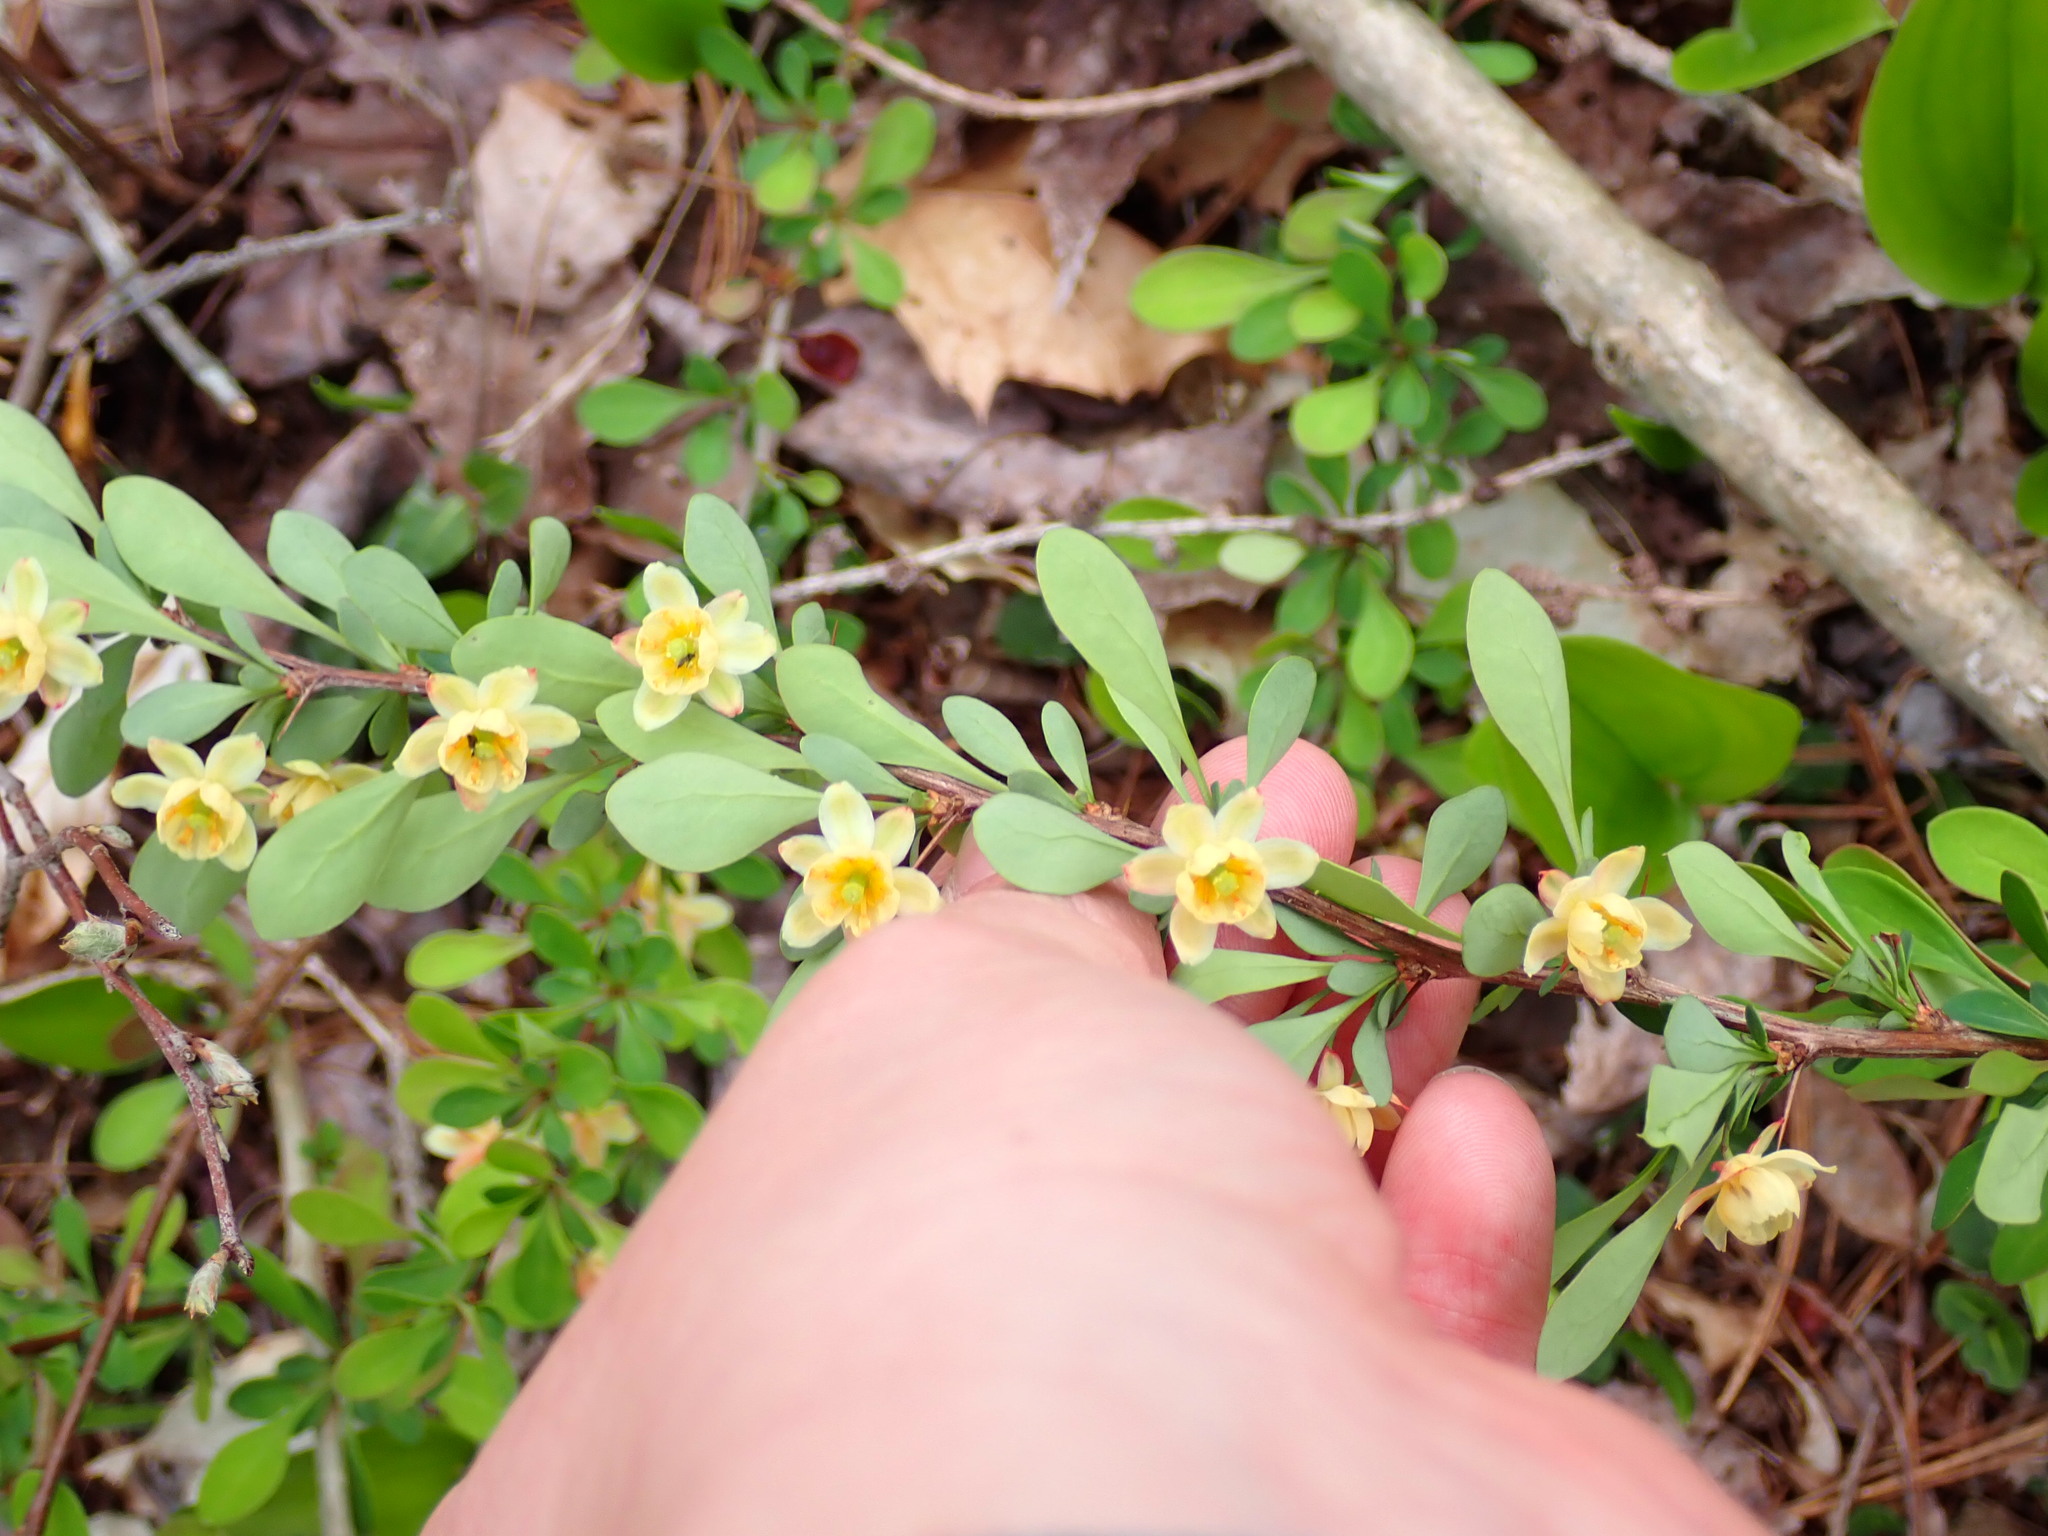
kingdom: Plantae
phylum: Tracheophyta
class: Magnoliopsida
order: Ranunculales
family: Berberidaceae
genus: Berberis
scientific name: Berberis thunbergii
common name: Japanese barberry
